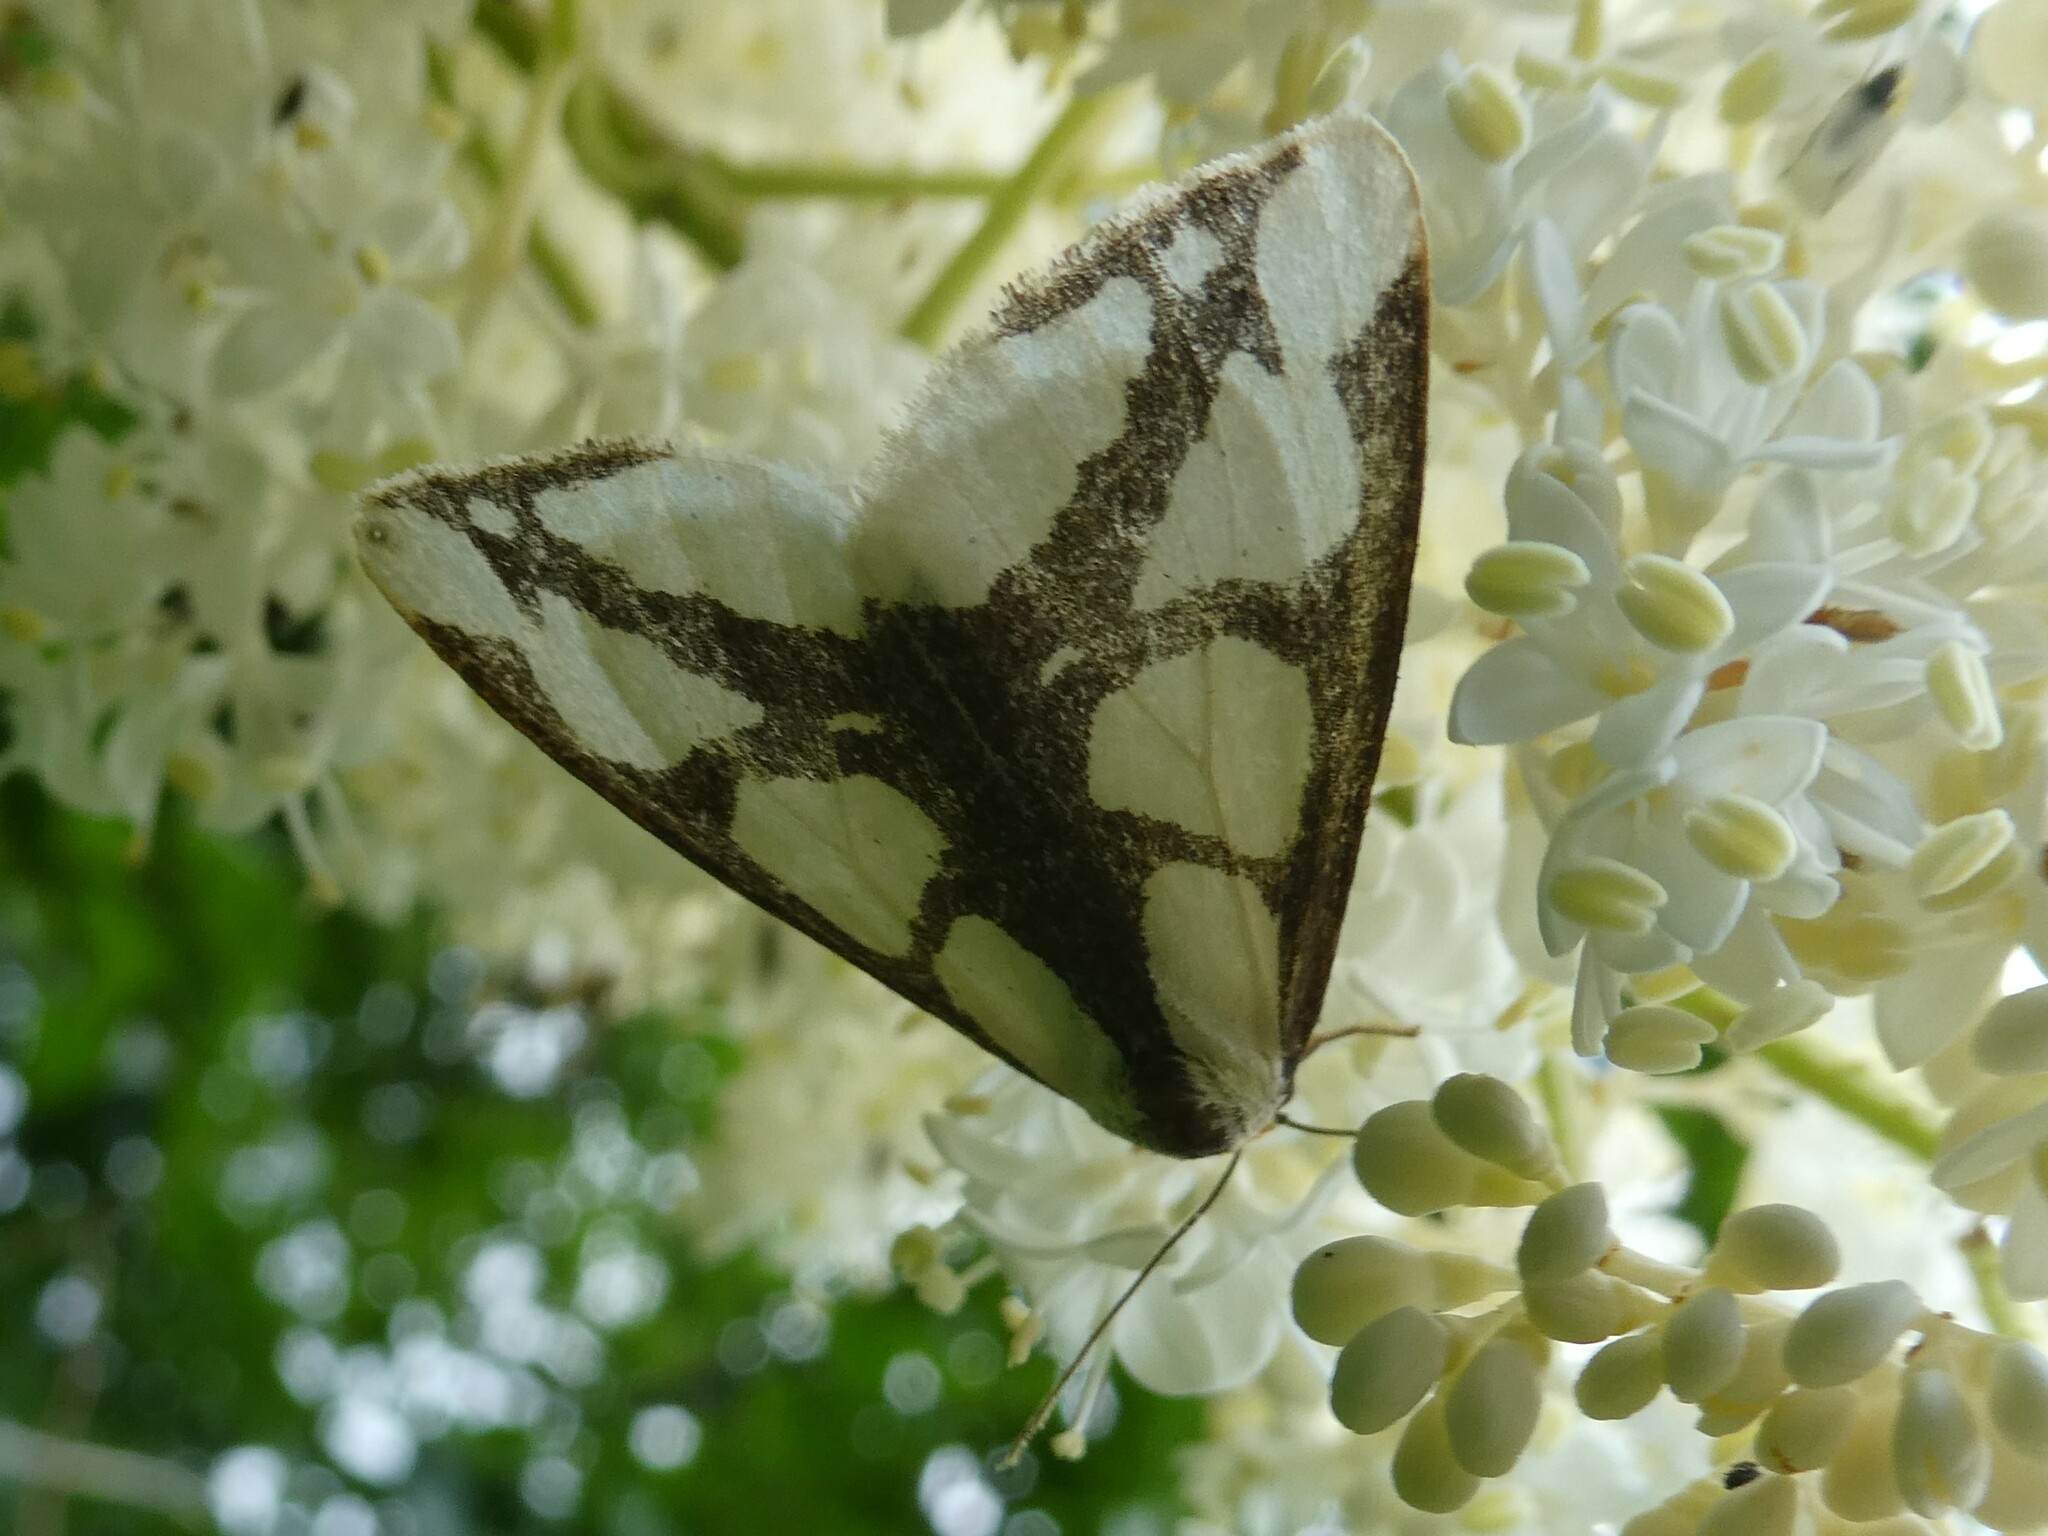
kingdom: Animalia
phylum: Arthropoda
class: Insecta
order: Lepidoptera
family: Erebidae
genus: Haploa
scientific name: Haploa lecontei
